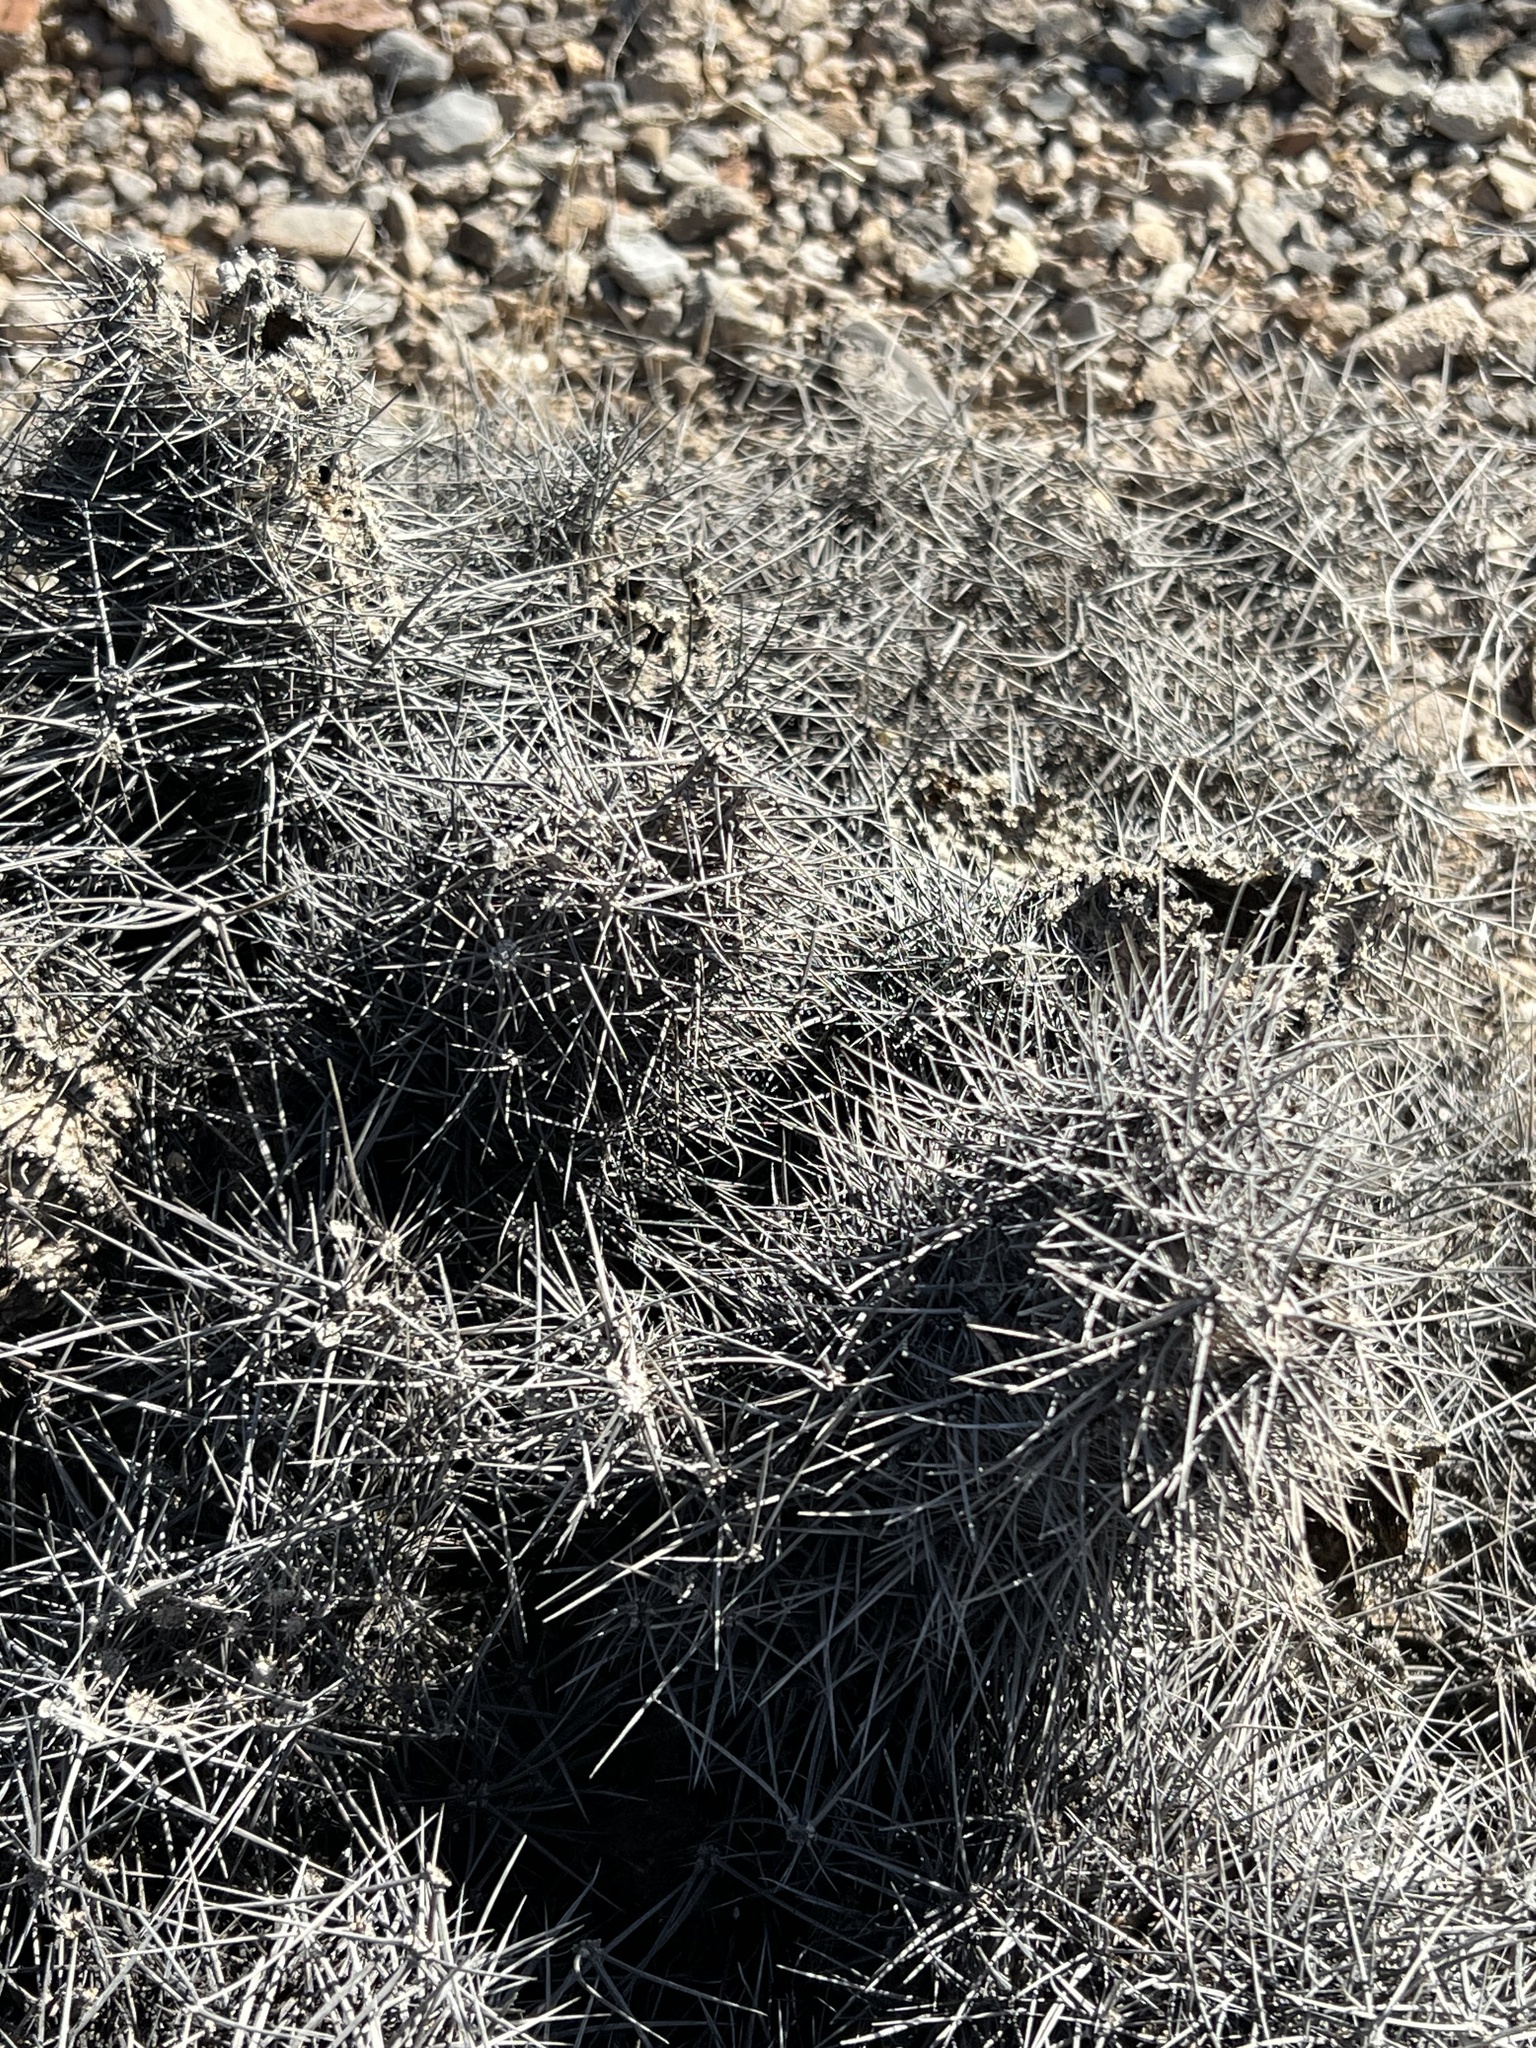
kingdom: Plantae
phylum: Tracheophyta
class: Magnoliopsida
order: Caryophyllales
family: Cactaceae
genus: Echinocereus
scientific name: Echinocereus engelmannii
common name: Engelmann's hedgehog cactus
